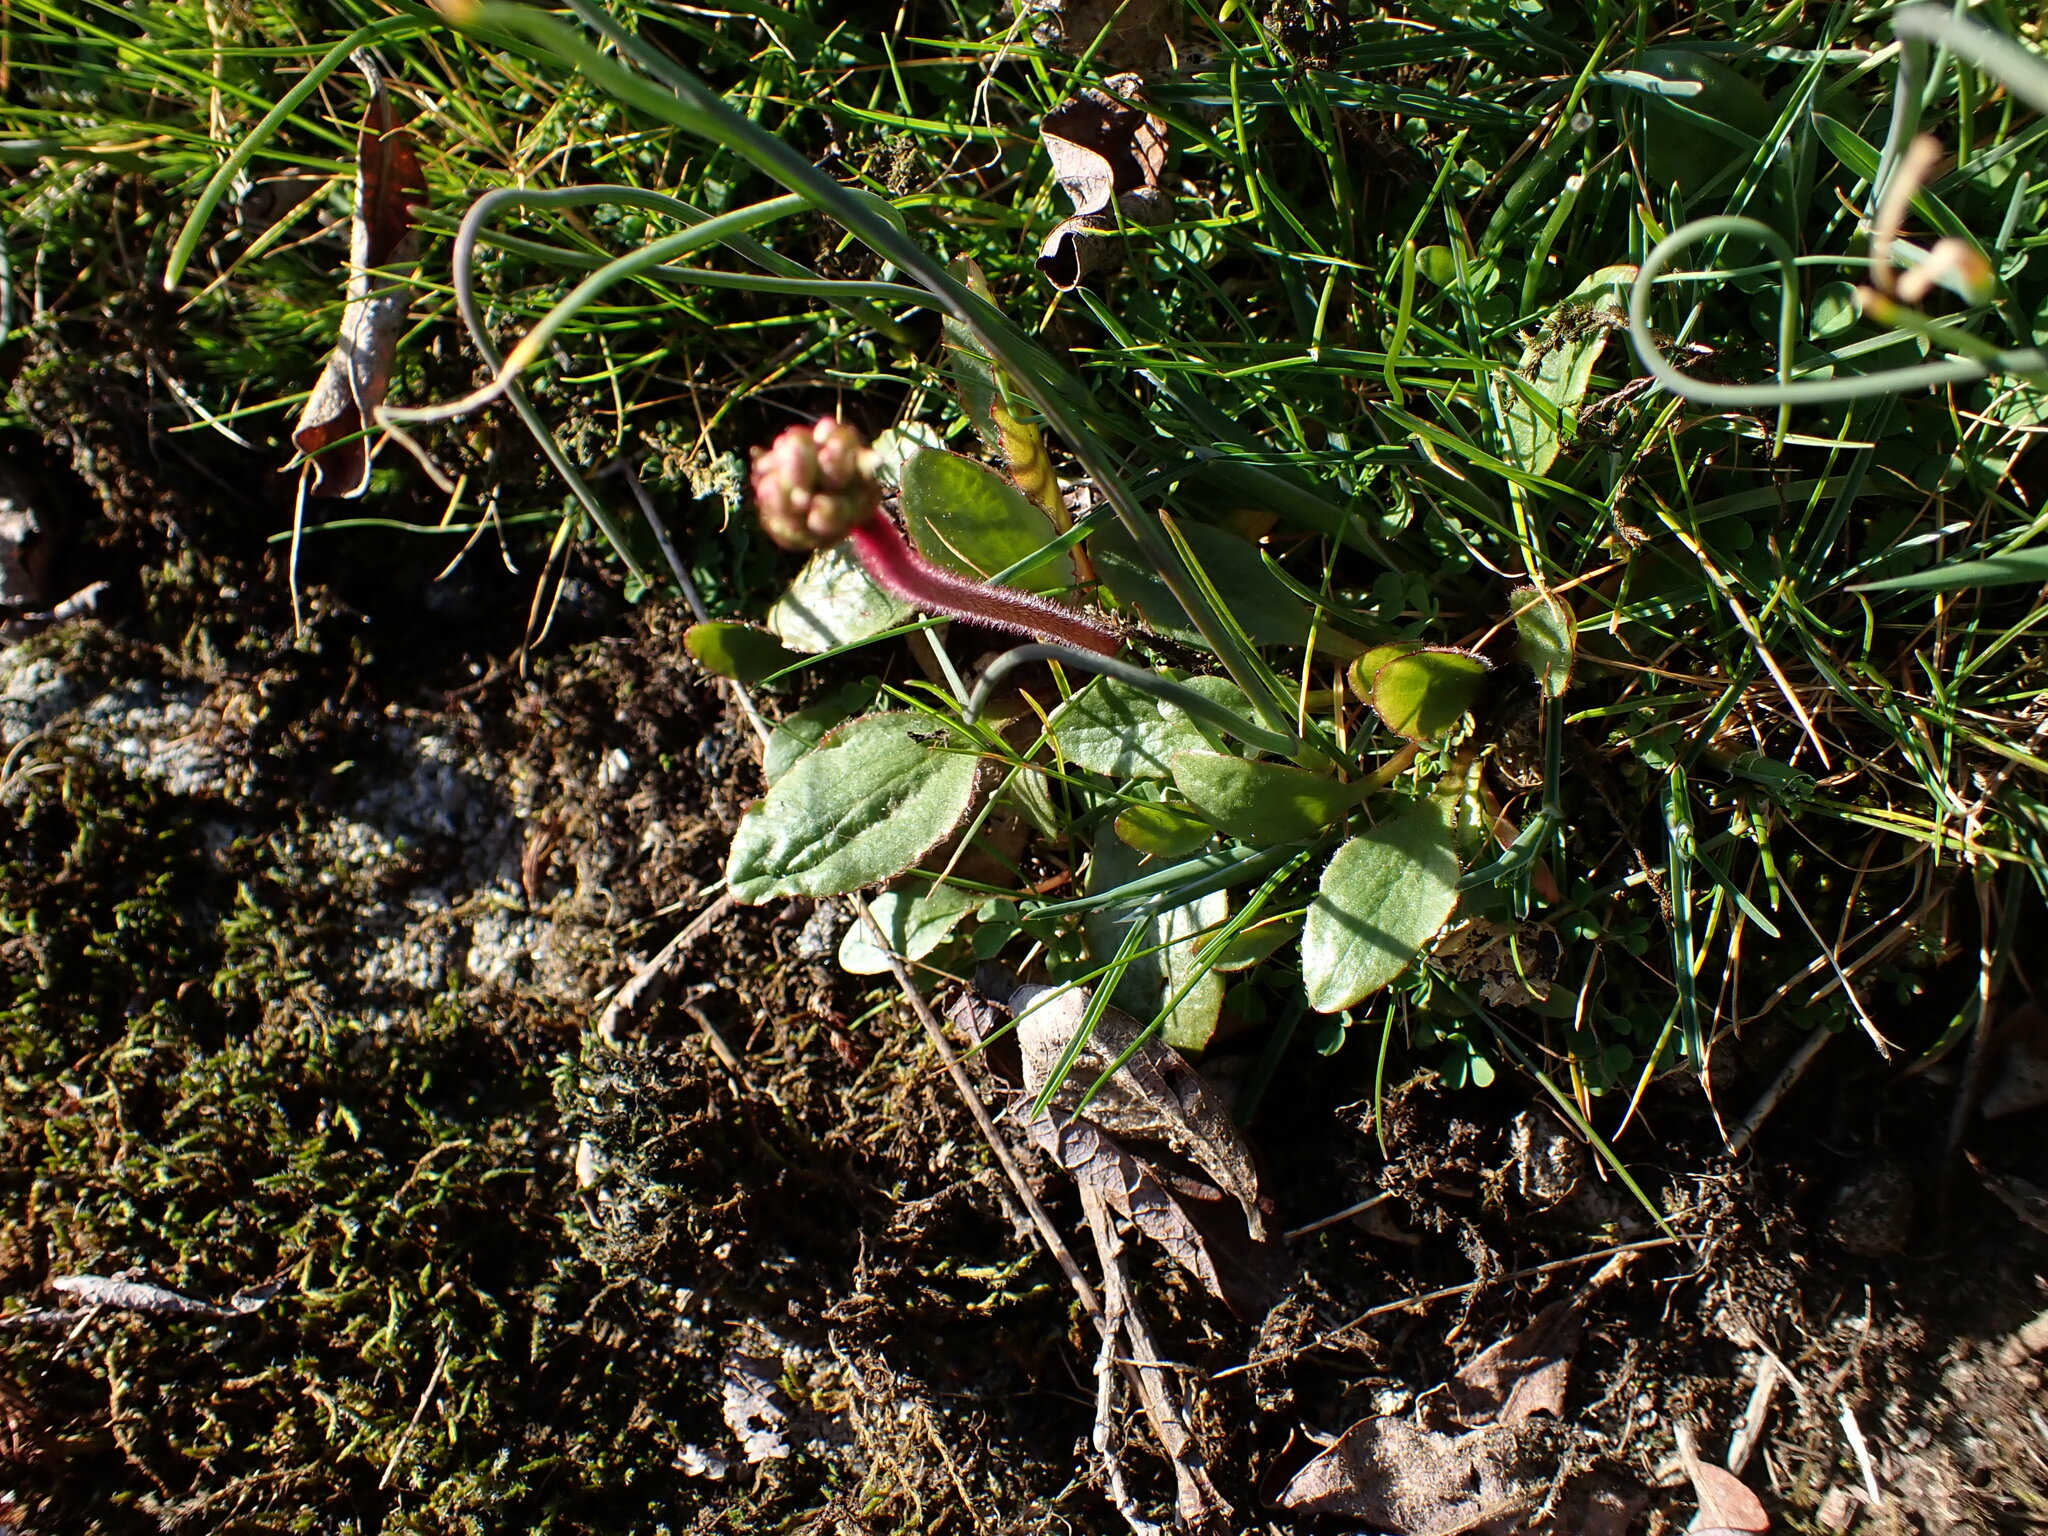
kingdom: Plantae
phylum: Tracheophyta
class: Magnoliopsida
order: Saxifragales
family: Saxifragaceae
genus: Micranthes
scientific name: Micranthes integrifolia
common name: Wholeleaf saxifrage
